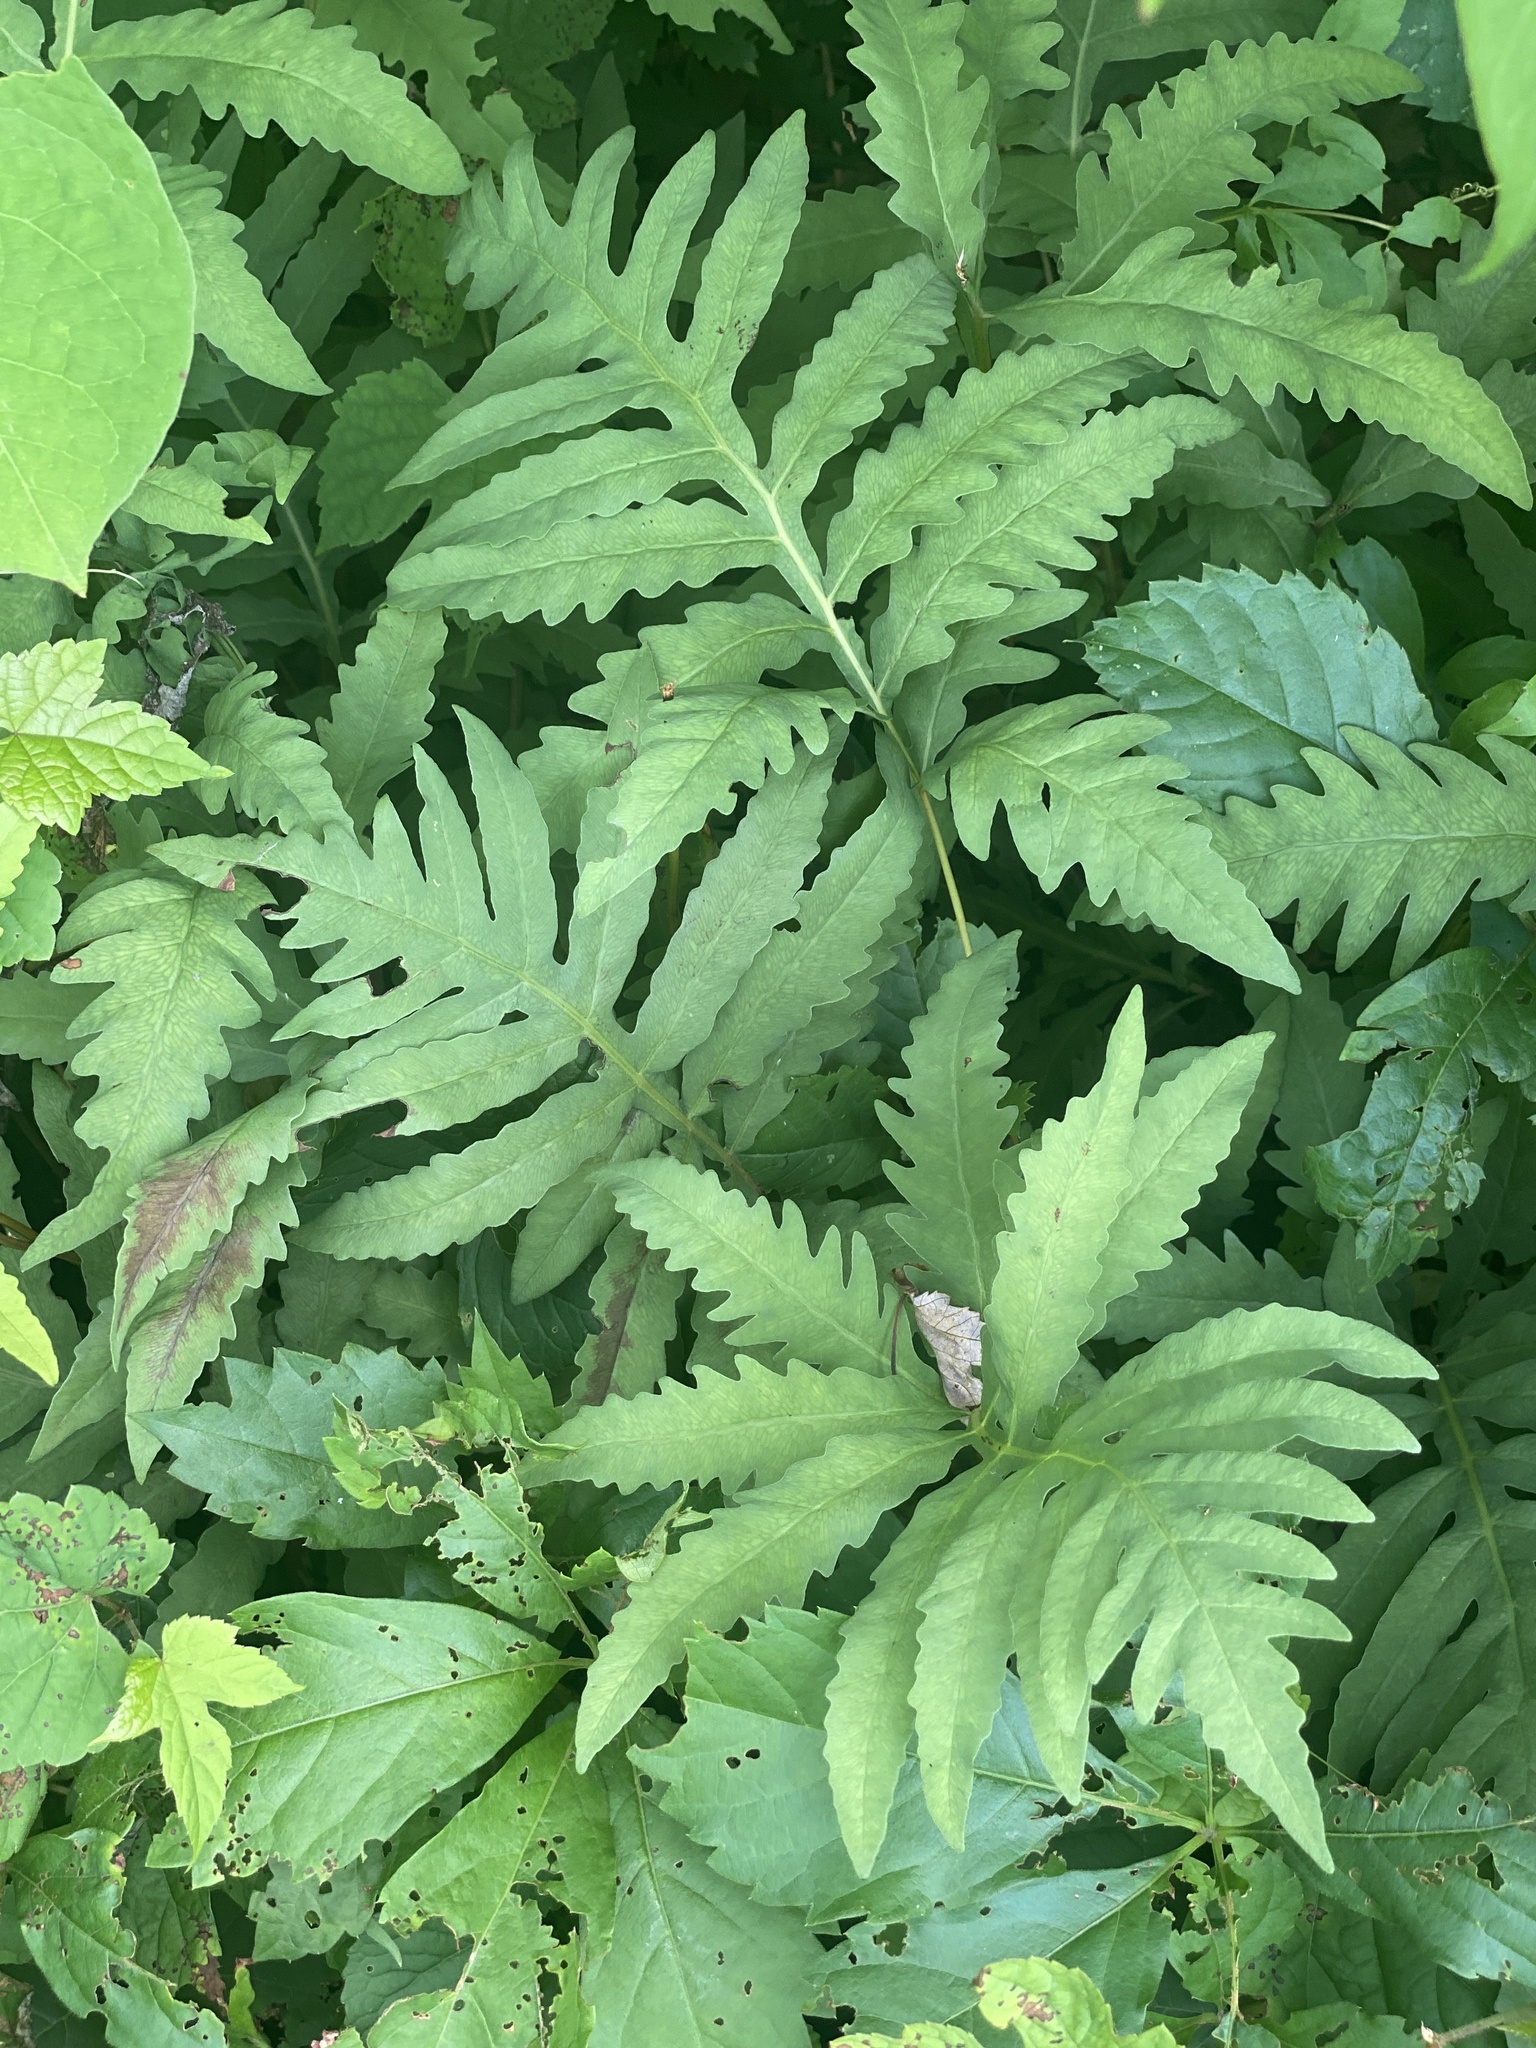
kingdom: Plantae
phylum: Tracheophyta
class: Polypodiopsida
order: Polypodiales
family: Onocleaceae
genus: Onoclea
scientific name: Onoclea sensibilis
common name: Sensitive fern
